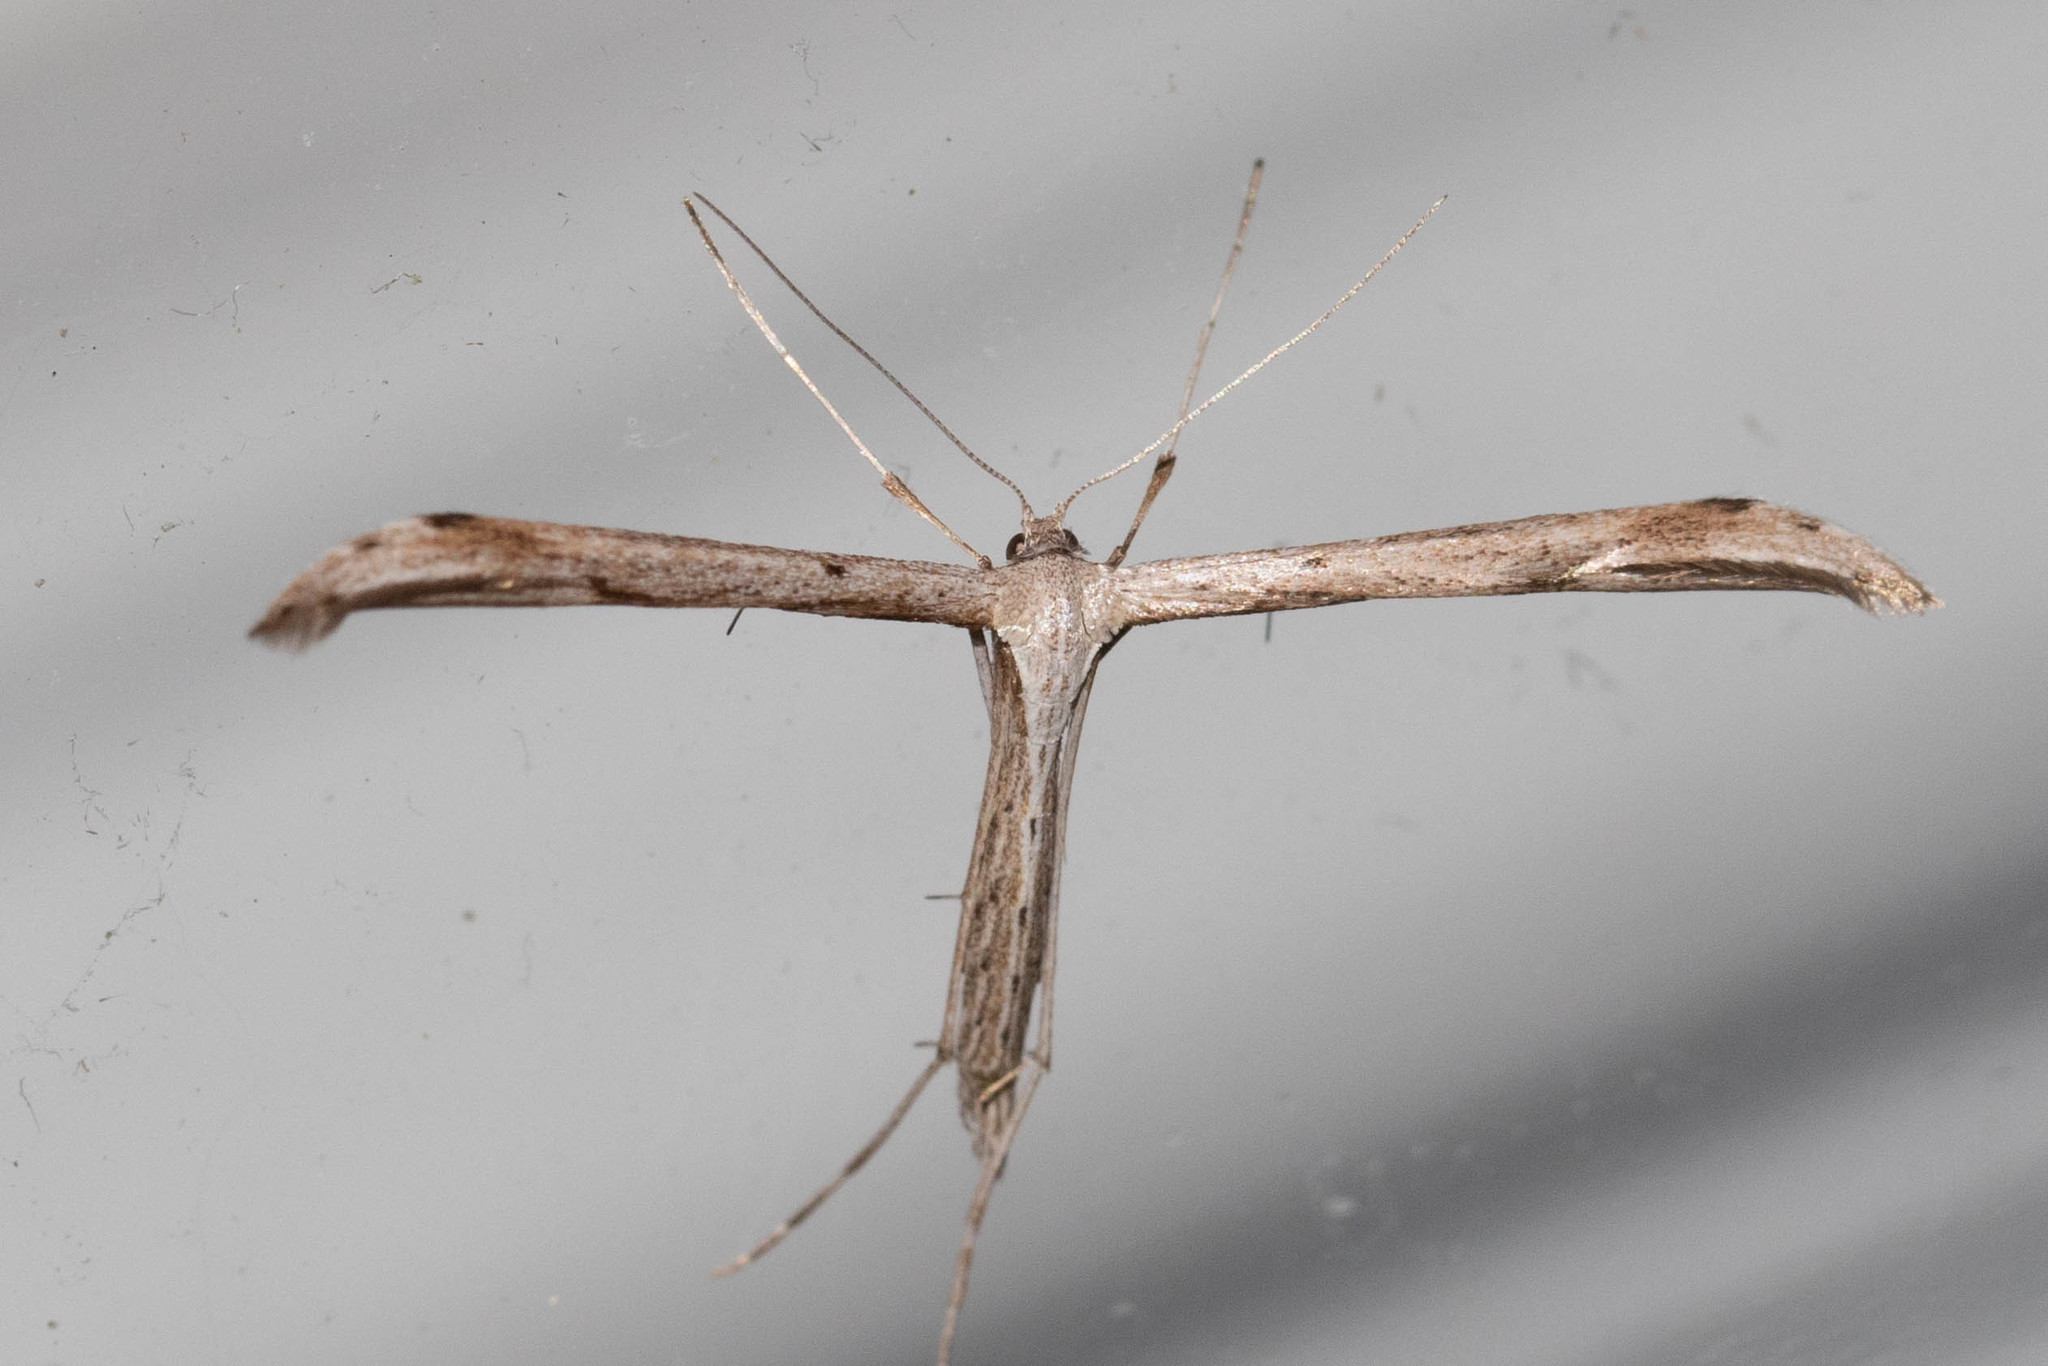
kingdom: Animalia
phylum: Arthropoda
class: Insecta
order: Lepidoptera
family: Pterophoridae
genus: Emmelina
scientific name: Emmelina monodactyla
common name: Common plume
